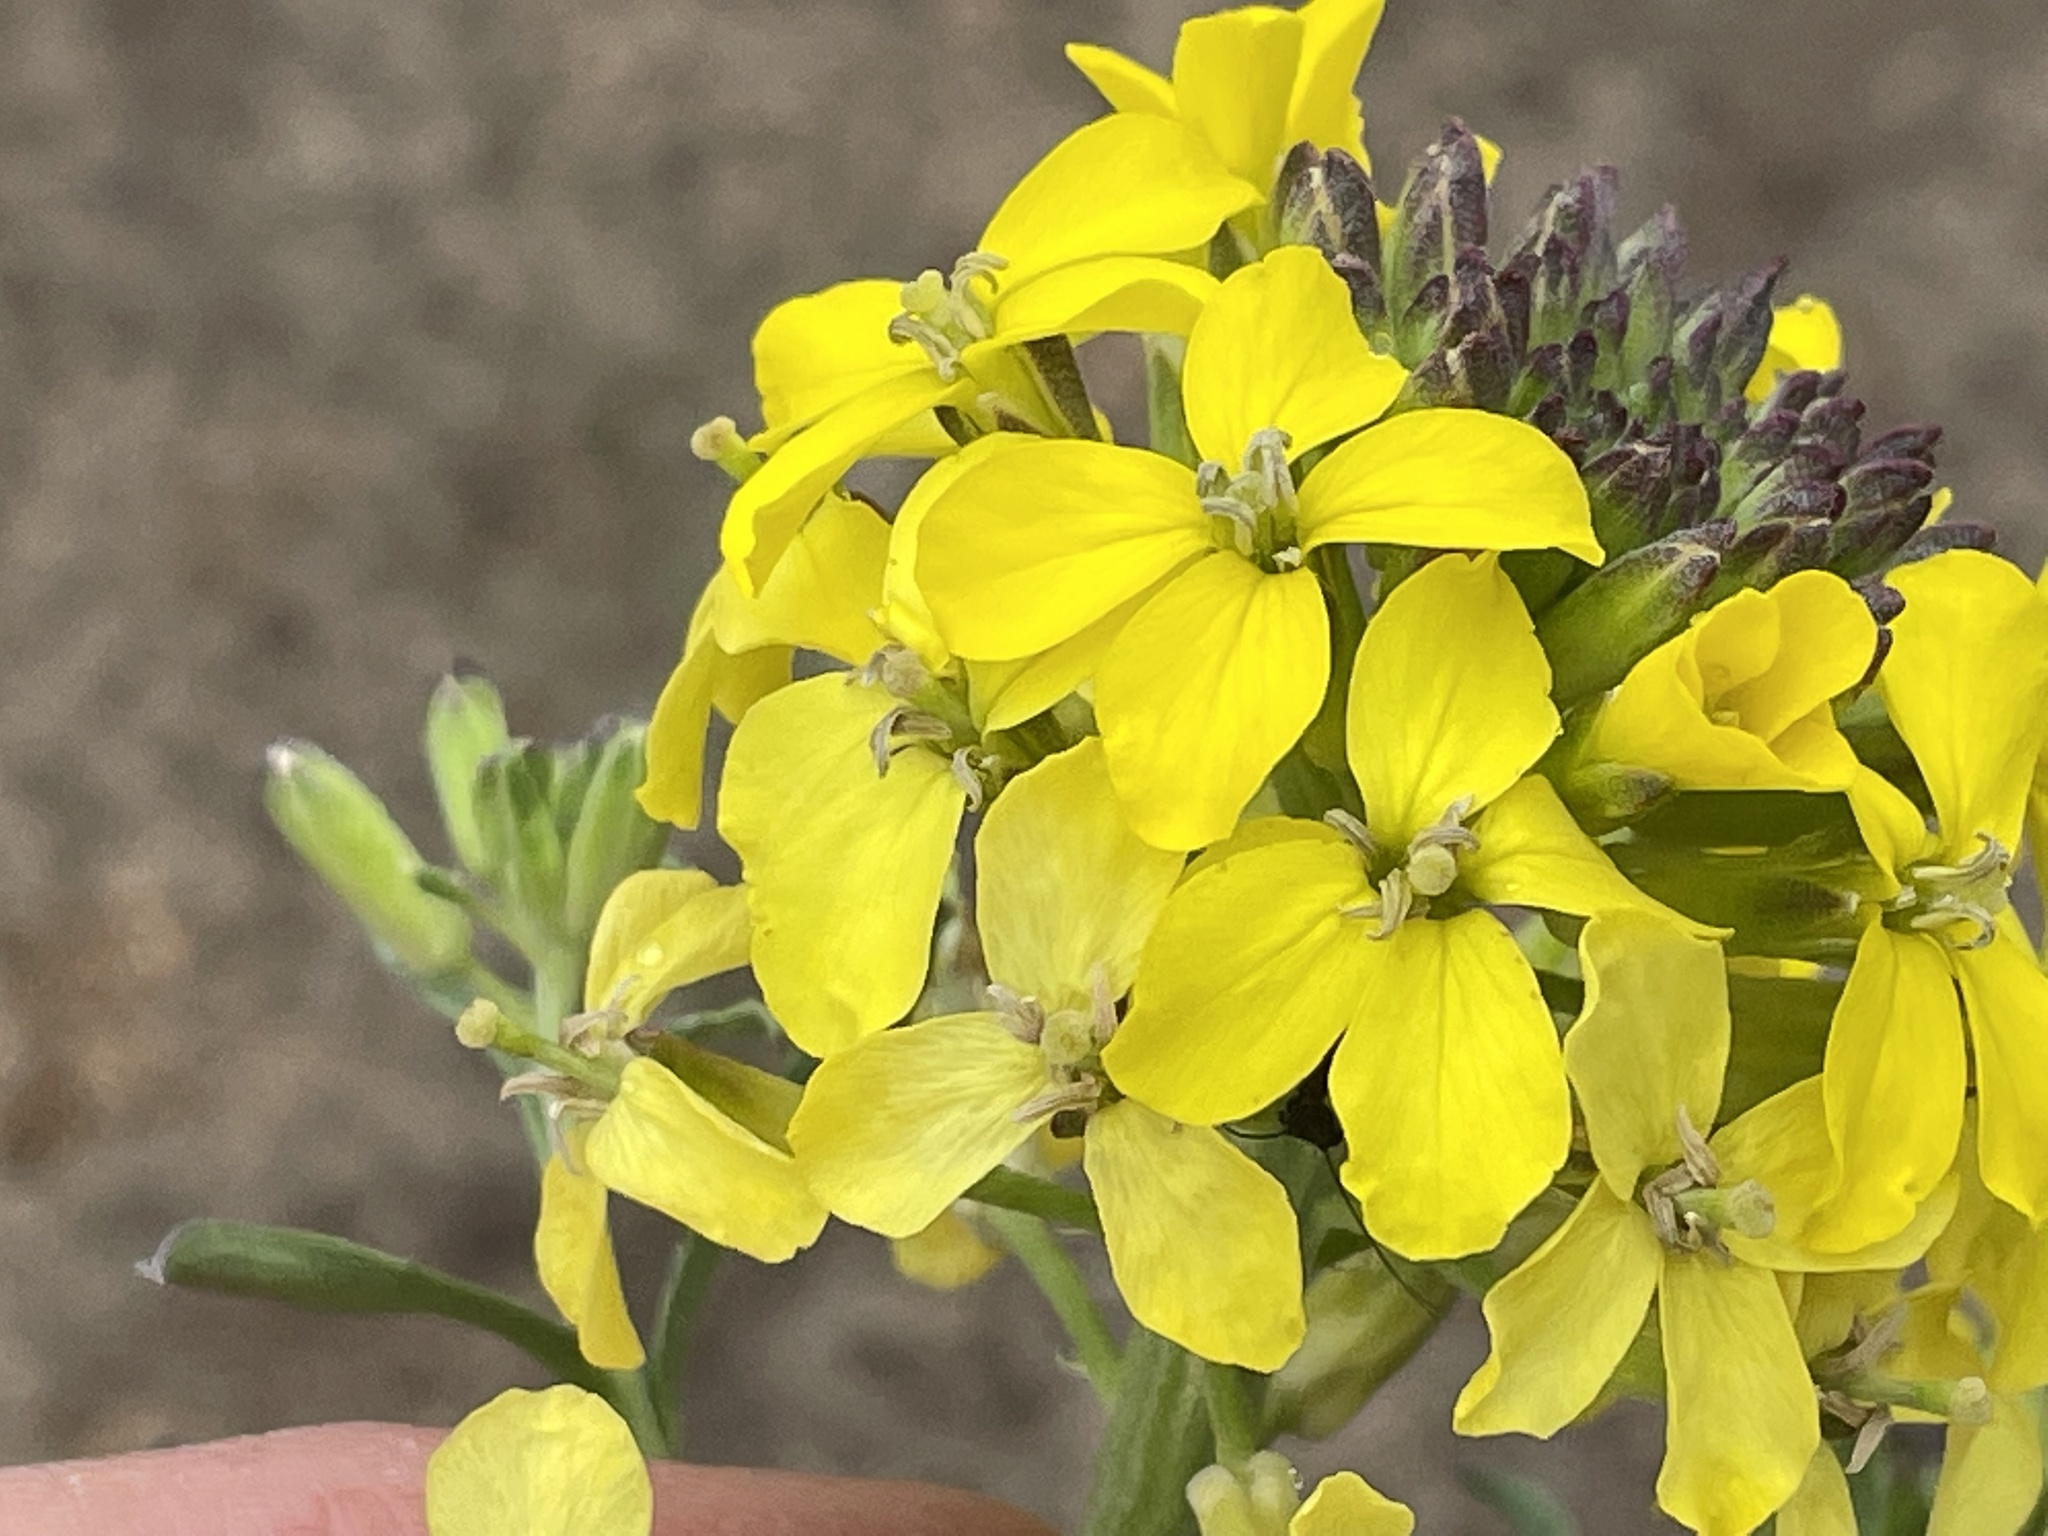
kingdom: Plantae
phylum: Tracheophyta
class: Magnoliopsida
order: Brassicales
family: Brassicaceae
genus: Erysimum
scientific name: Erysimum capitatum
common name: Western wallflower
